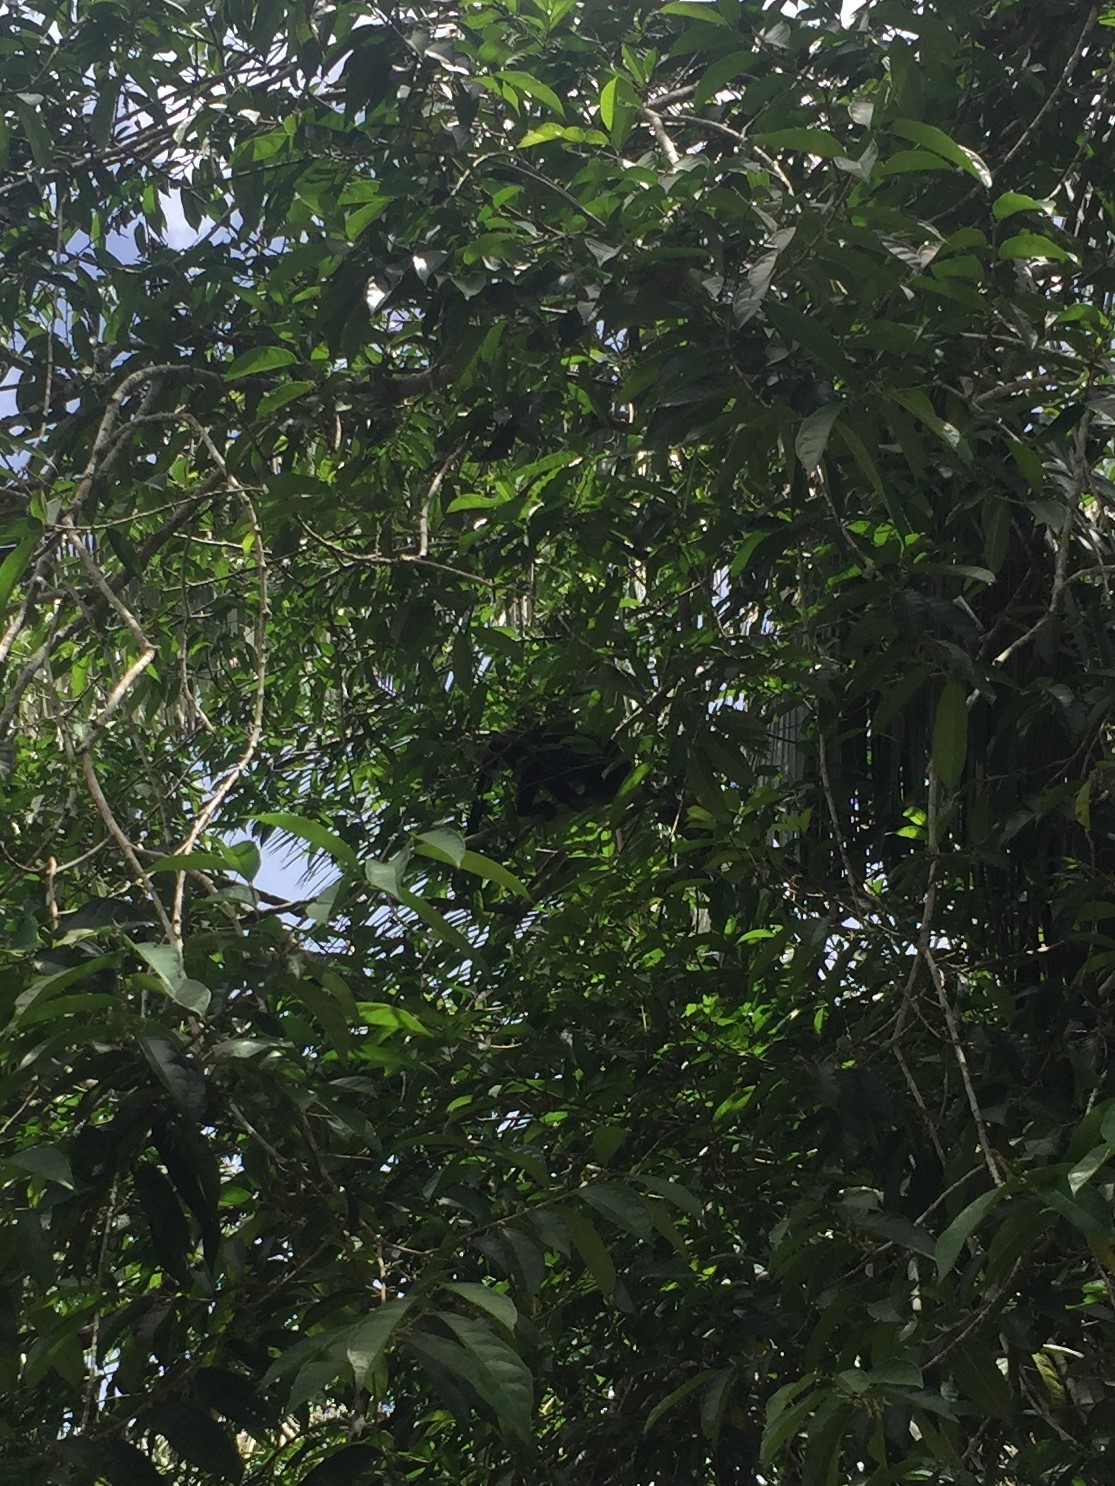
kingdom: Animalia
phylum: Chordata
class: Mammalia
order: Primates
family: Atelidae
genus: Alouatta
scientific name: Alouatta pigra
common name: Guatemalan black howler
